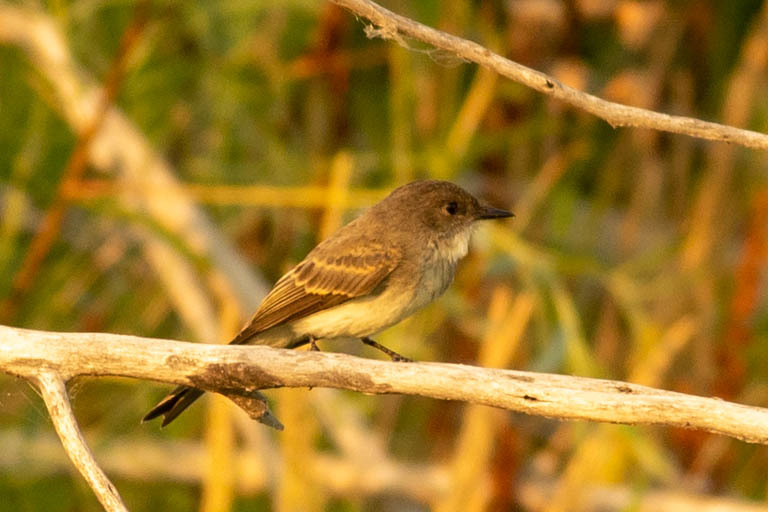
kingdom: Animalia
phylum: Chordata
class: Aves
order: Passeriformes
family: Tyrannidae
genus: Sayornis
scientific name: Sayornis phoebe
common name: Eastern phoebe
